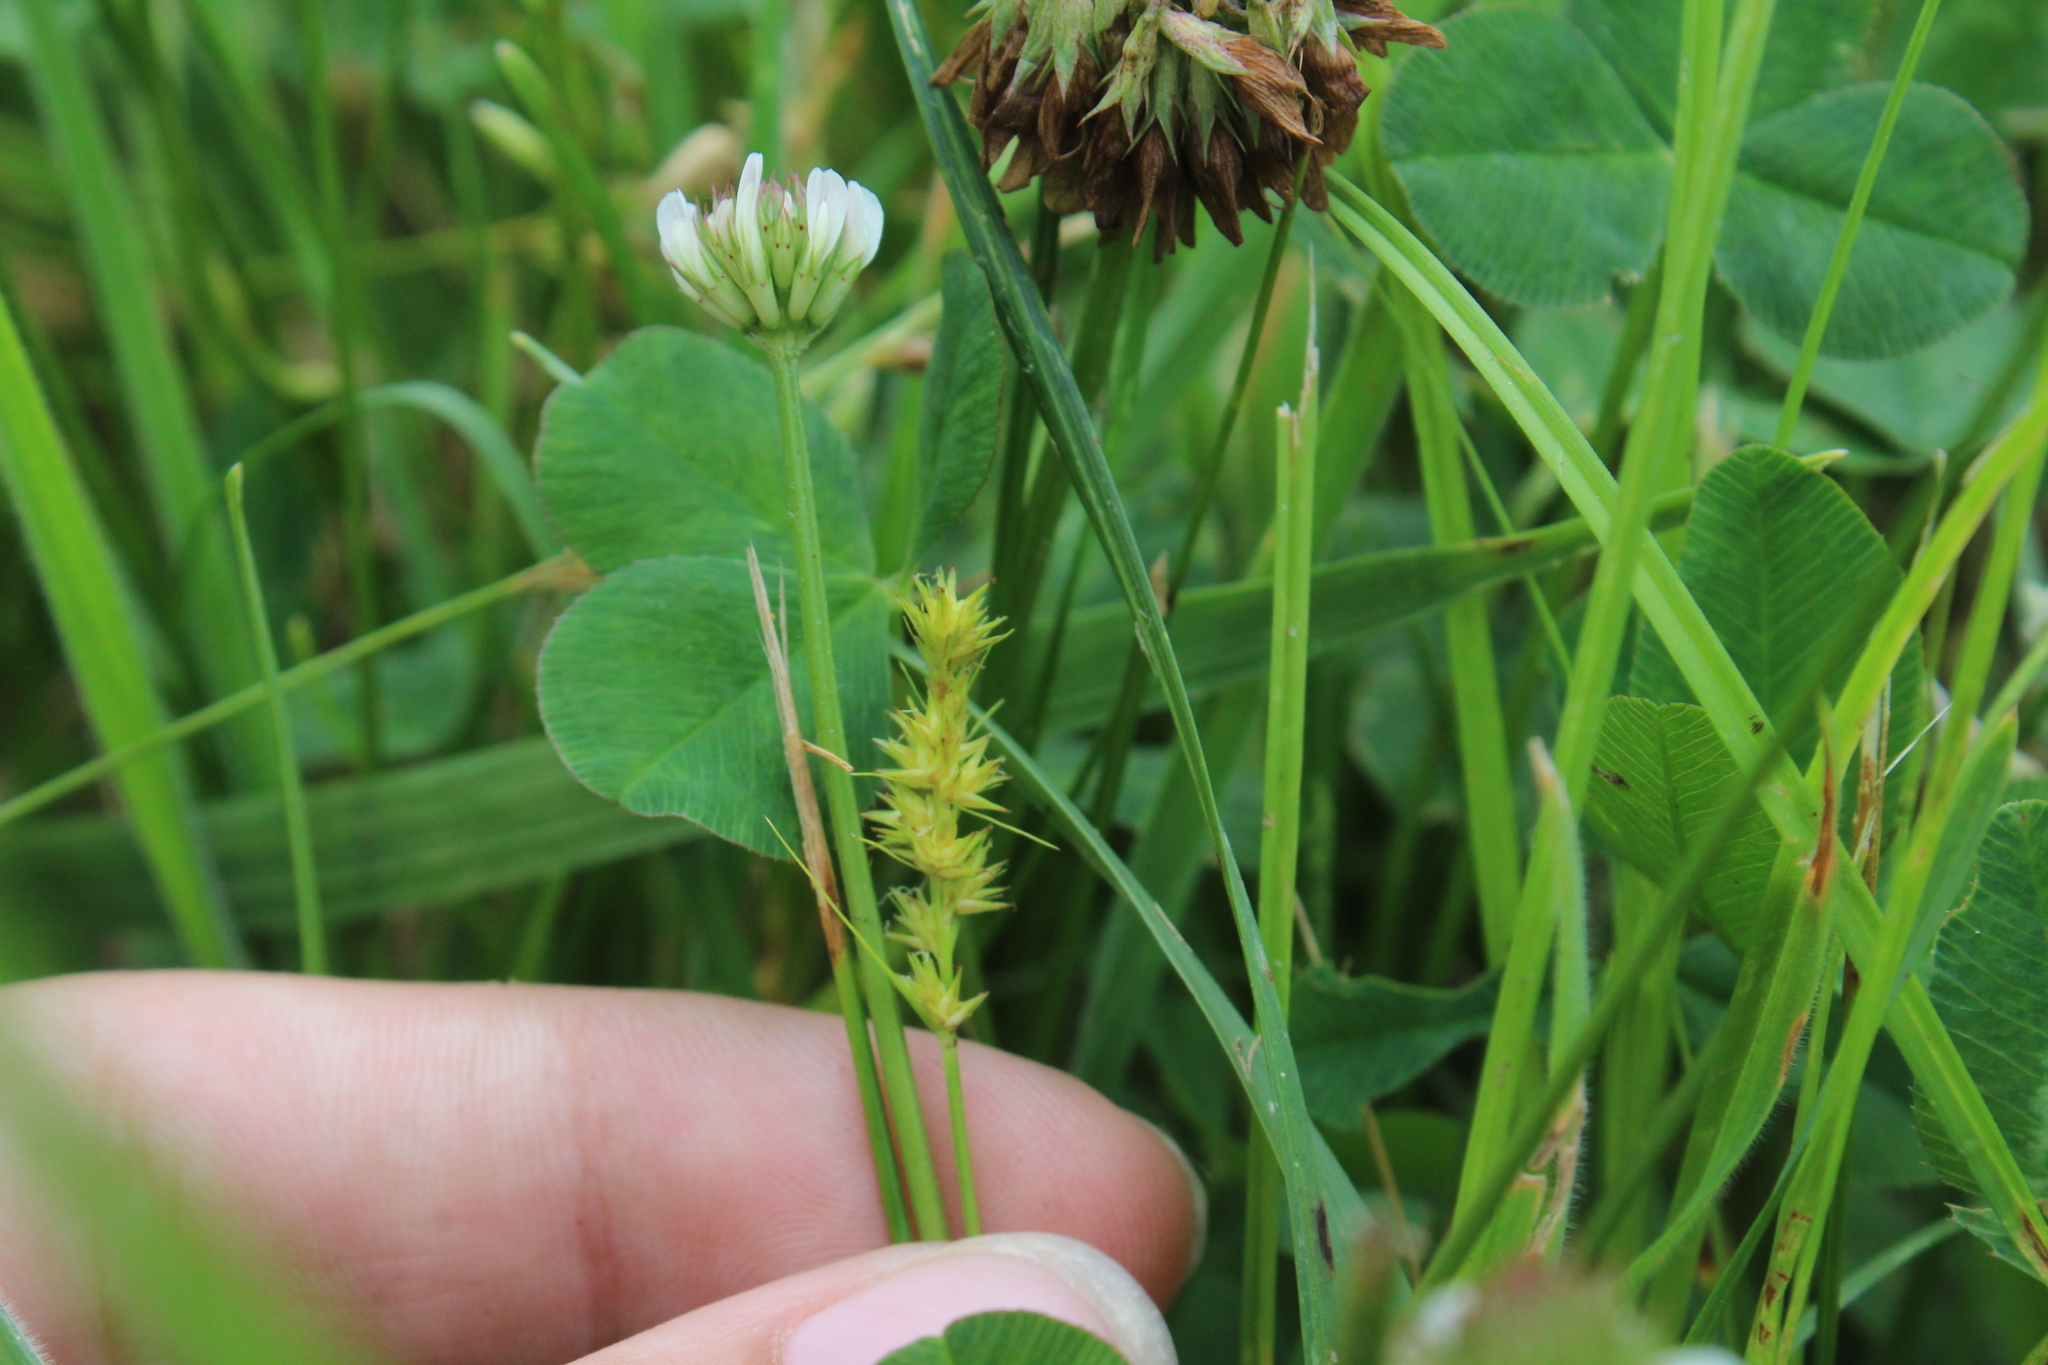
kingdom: Plantae
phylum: Tracheophyta
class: Magnoliopsida
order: Fabales
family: Fabaceae
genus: Trifolium
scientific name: Trifolium repens
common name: White clover
